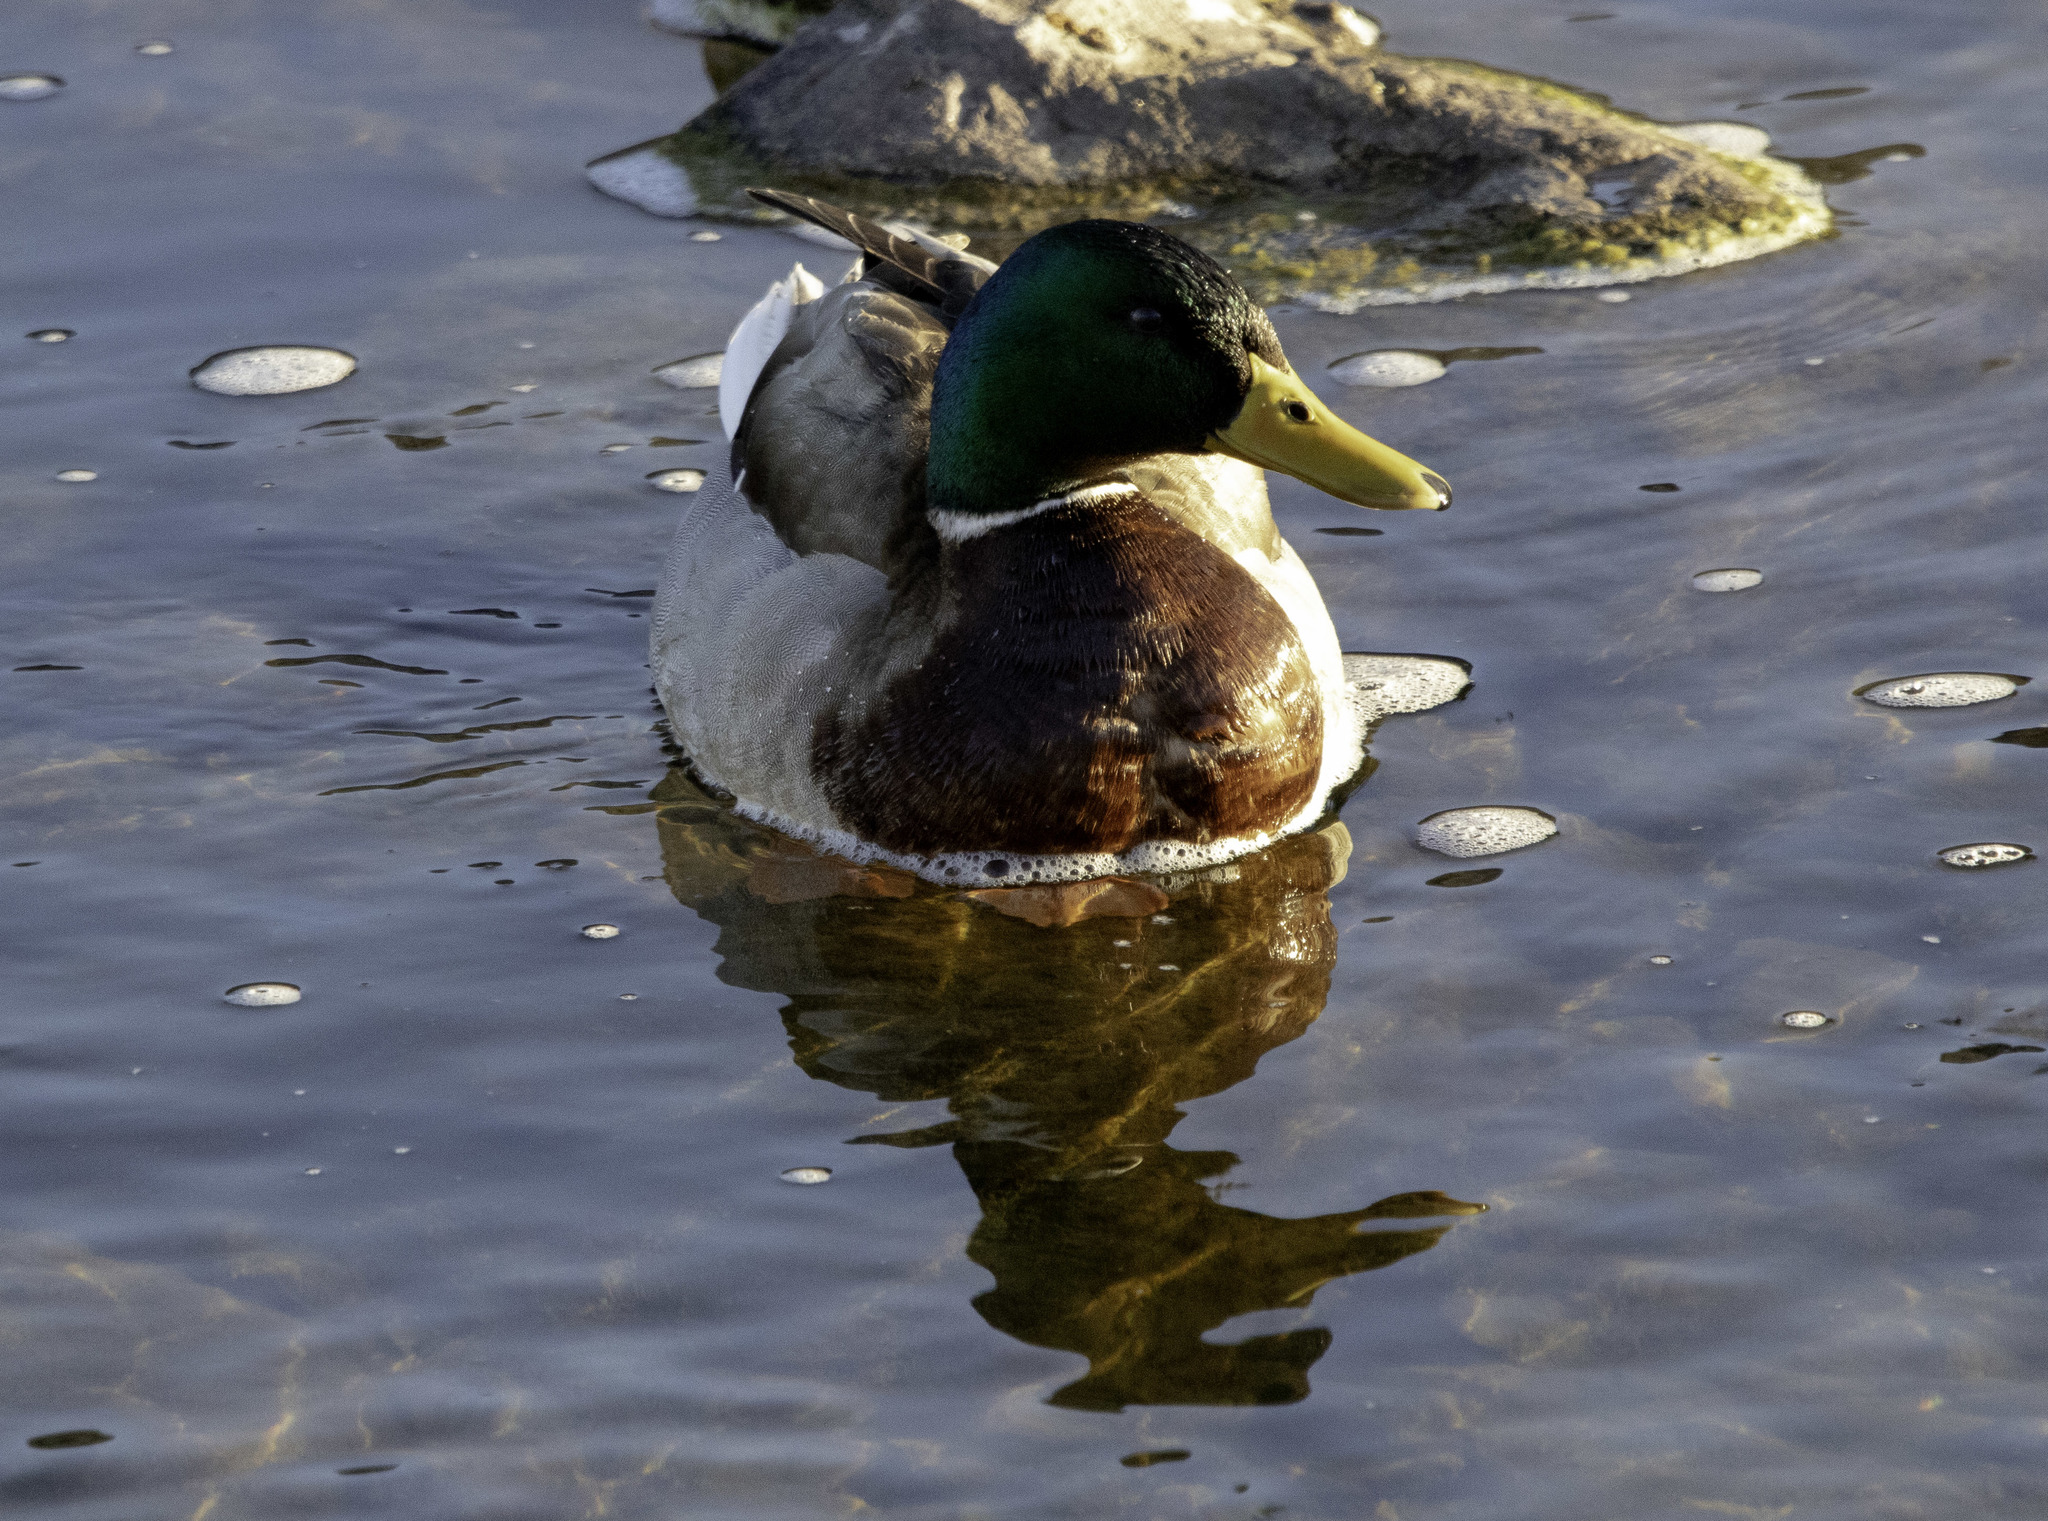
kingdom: Animalia
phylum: Chordata
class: Aves
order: Anseriformes
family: Anatidae
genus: Anas
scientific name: Anas platyrhynchos
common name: Mallard
